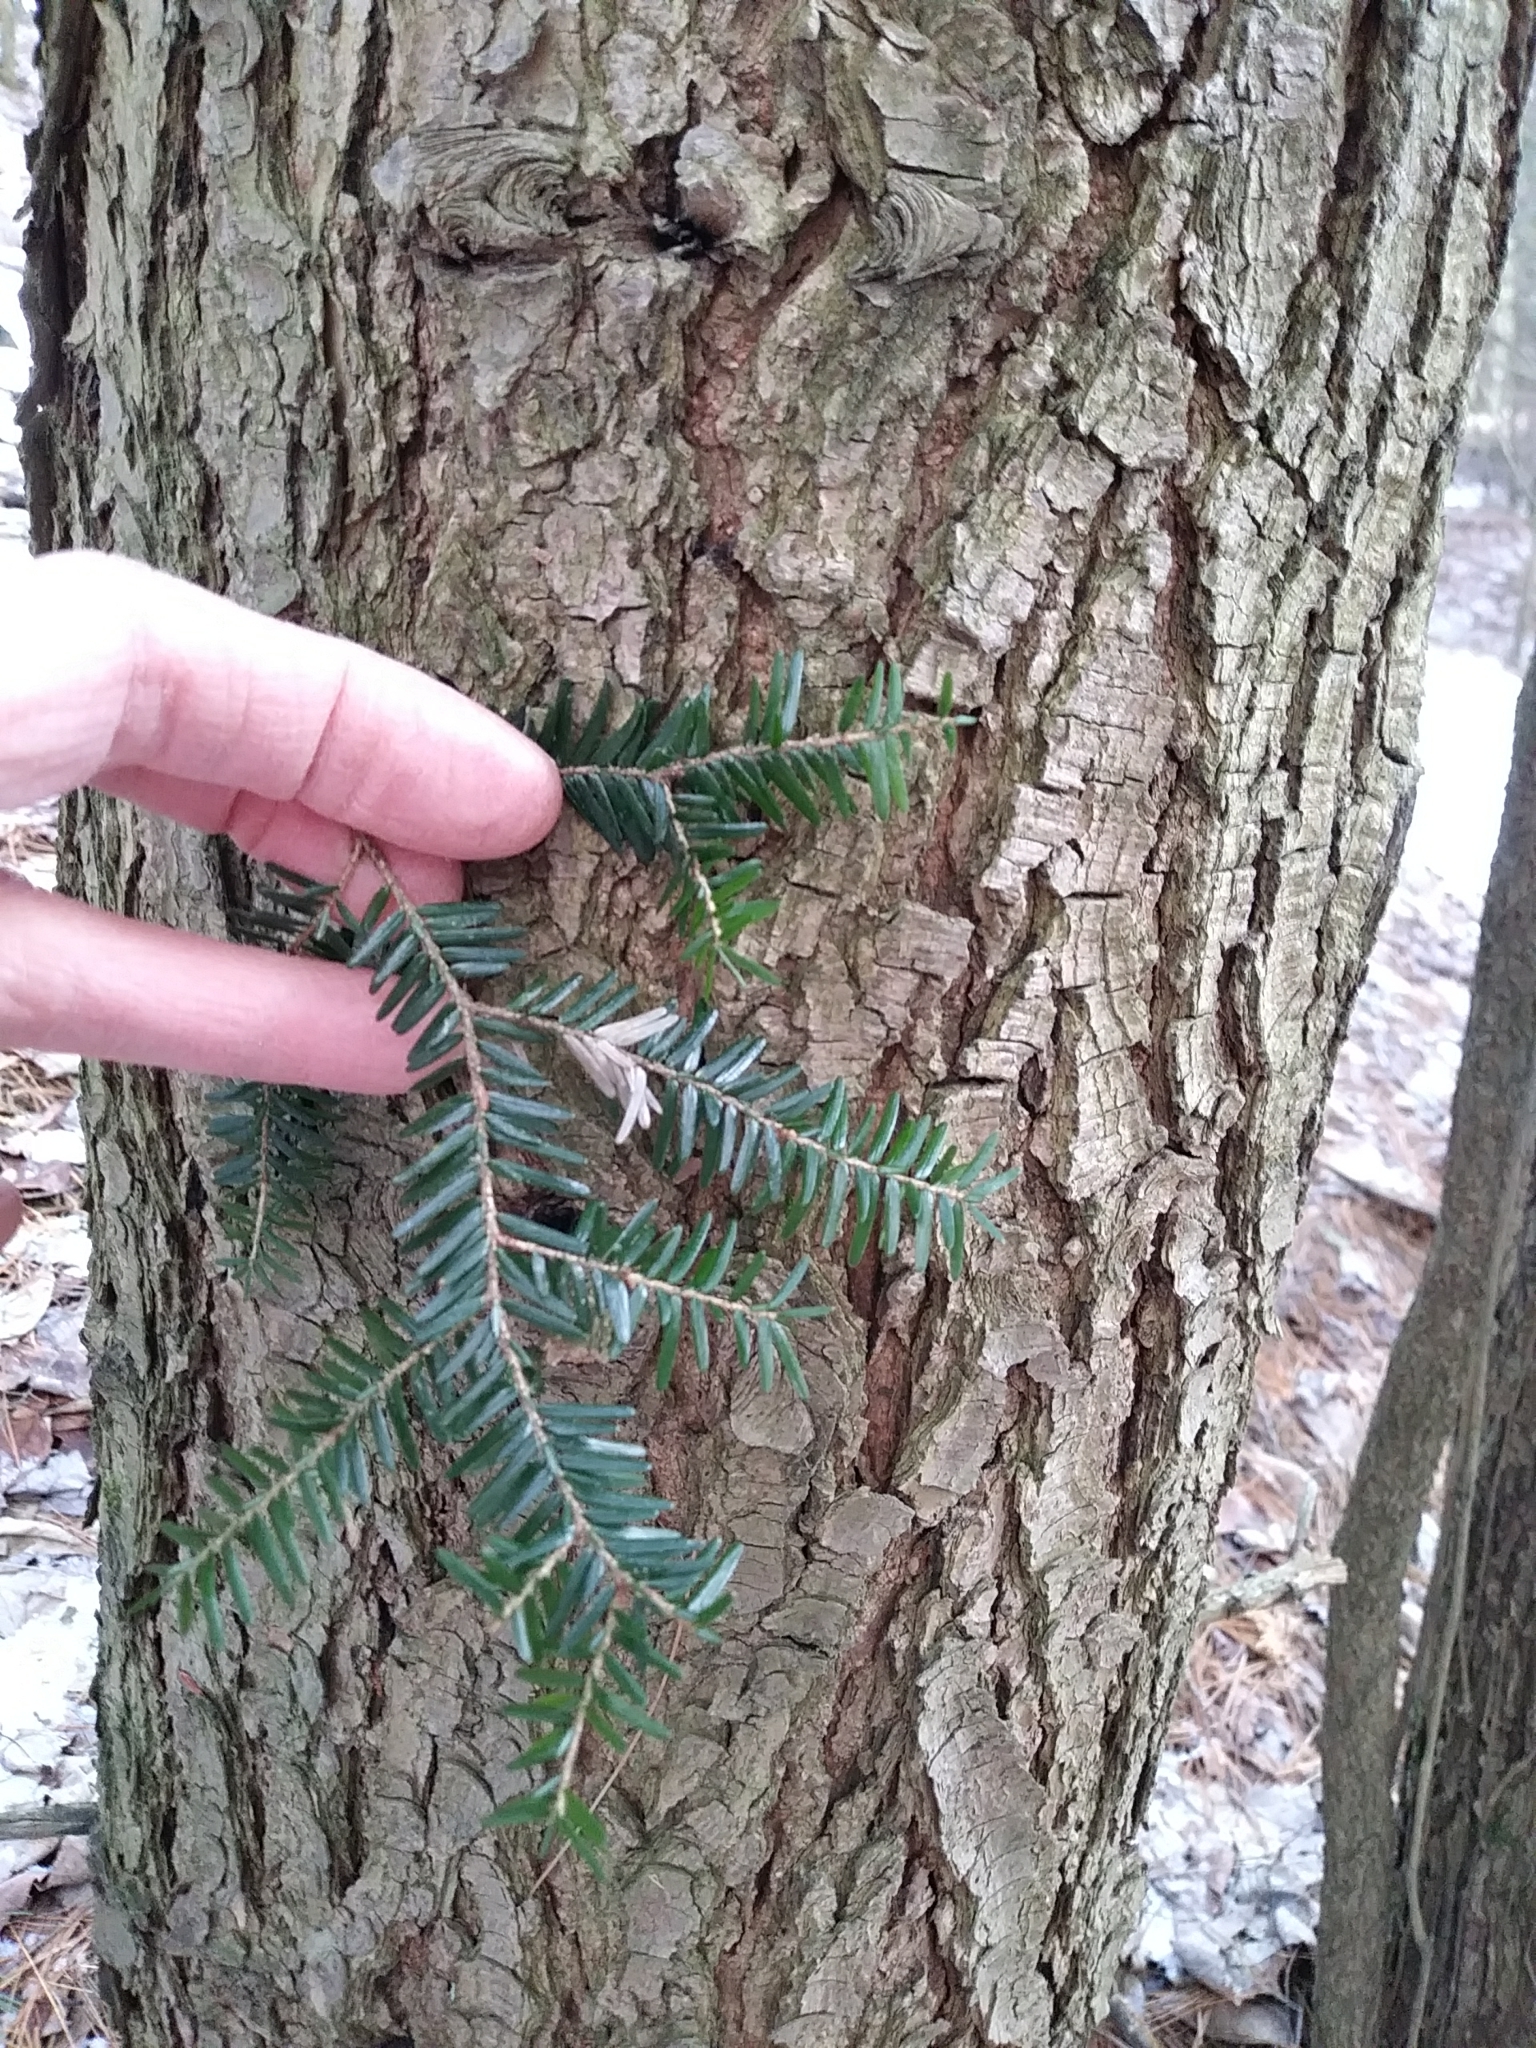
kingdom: Plantae
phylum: Tracheophyta
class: Pinopsida
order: Pinales
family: Pinaceae
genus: Tsuga
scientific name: Tsuga canadensis
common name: Eastern hemlock
